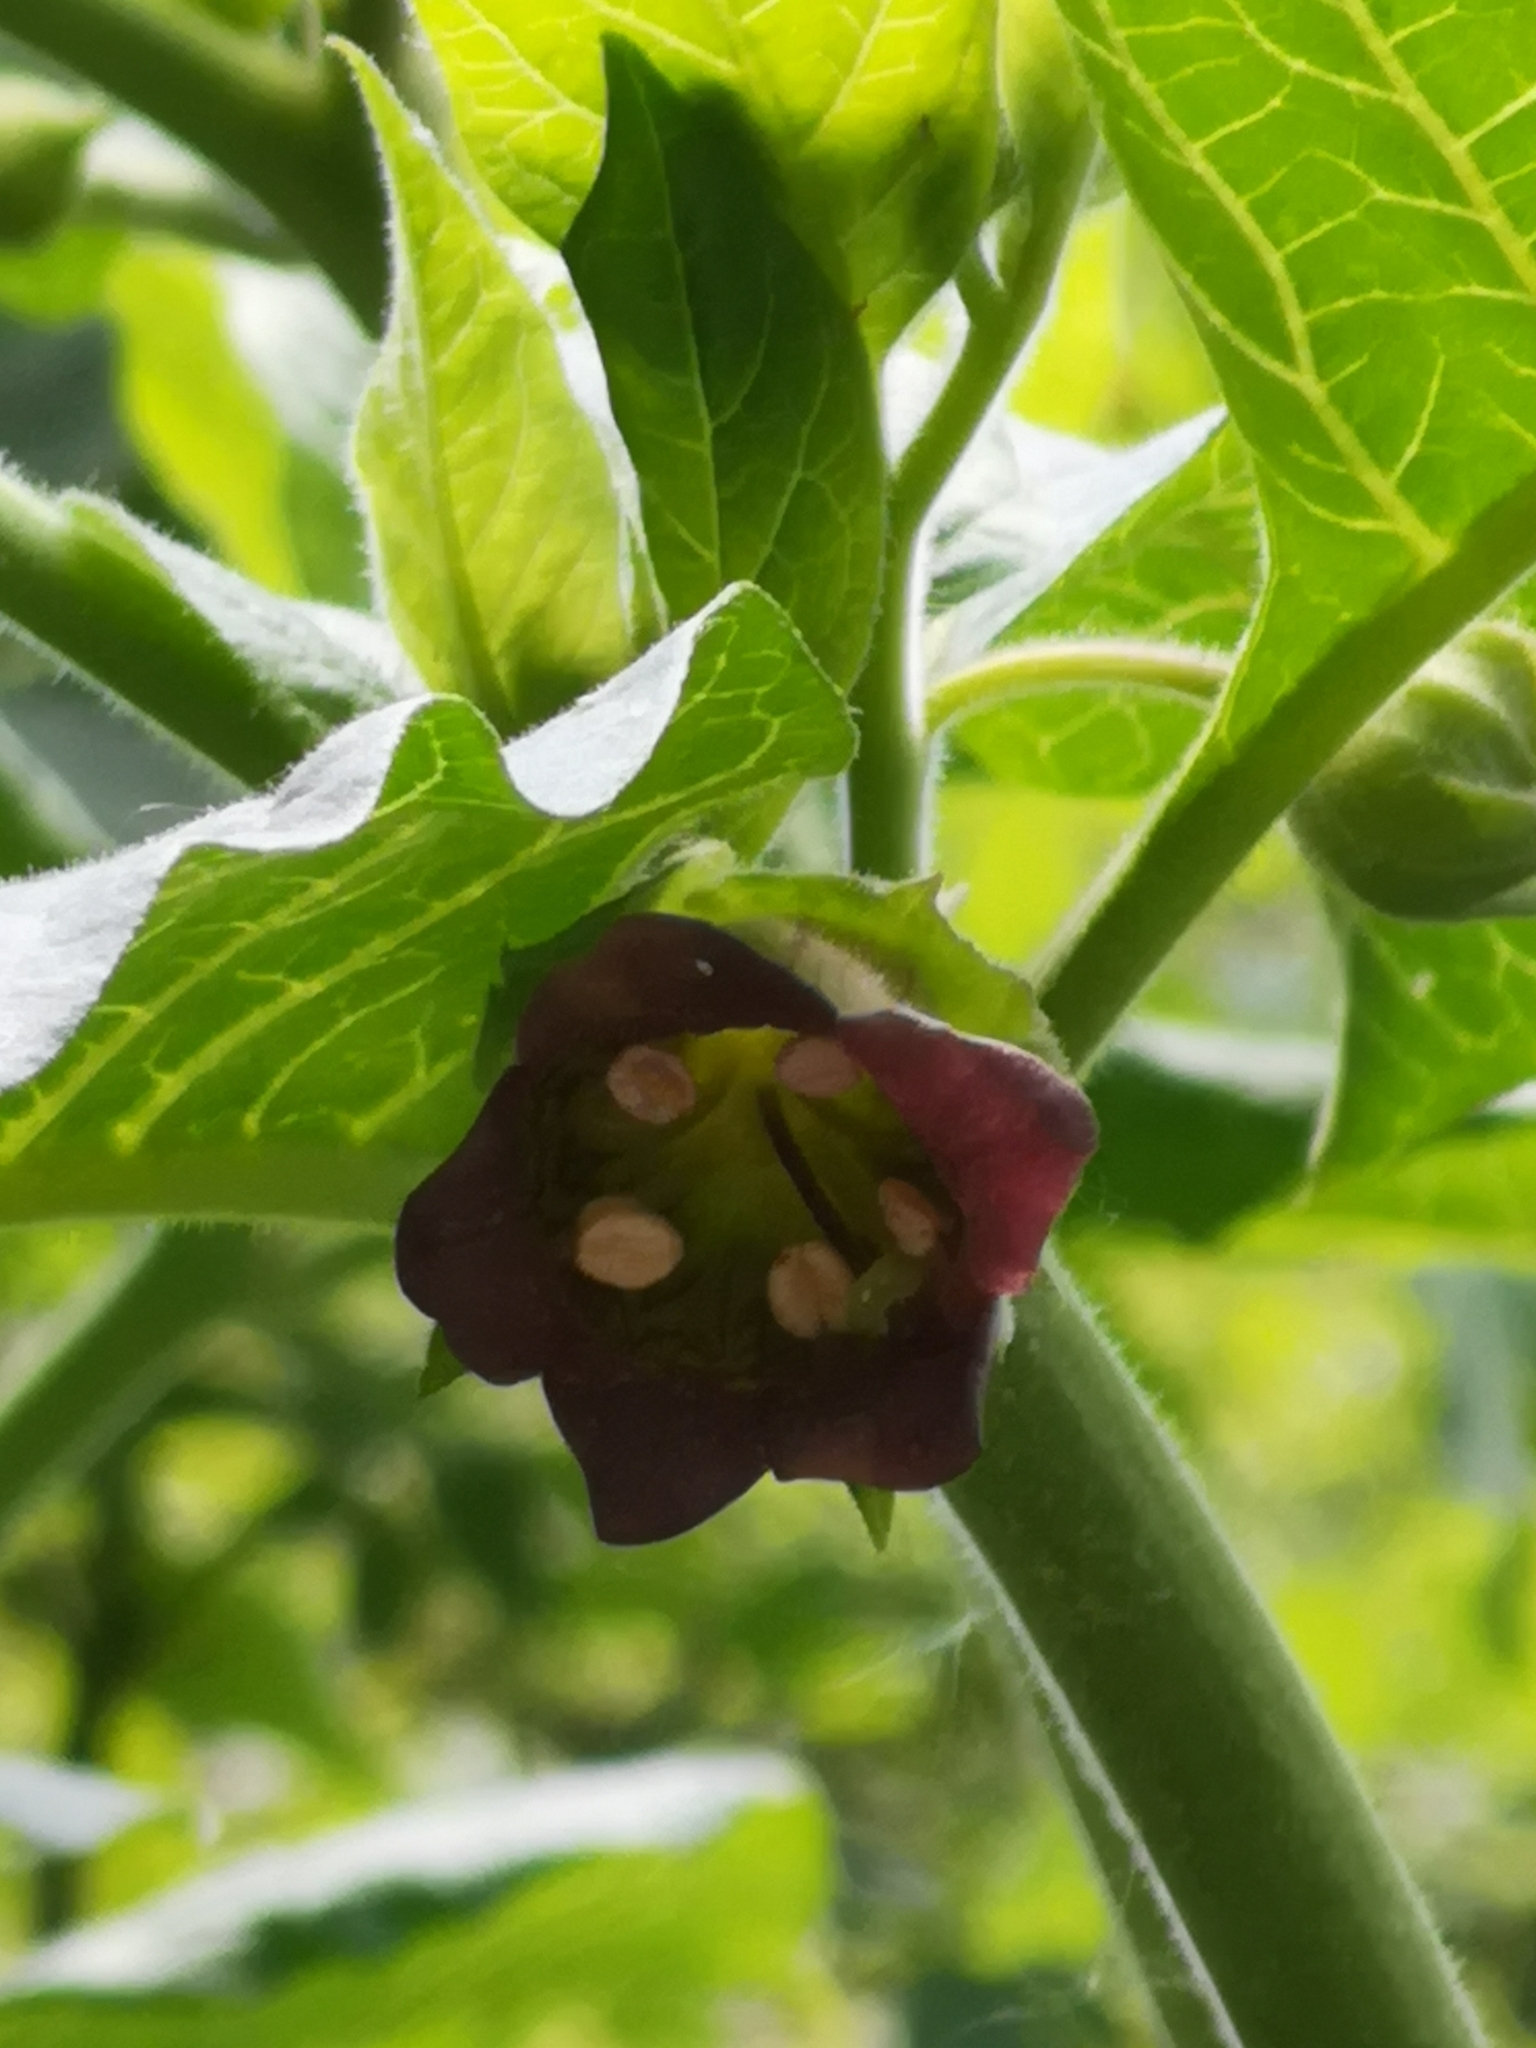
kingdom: Plantae
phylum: Tracheophyta
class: Magnoliopsida
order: Solanales
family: Solanaceae
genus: Atropa
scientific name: Atropa belladonna
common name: Deadly nightshade
